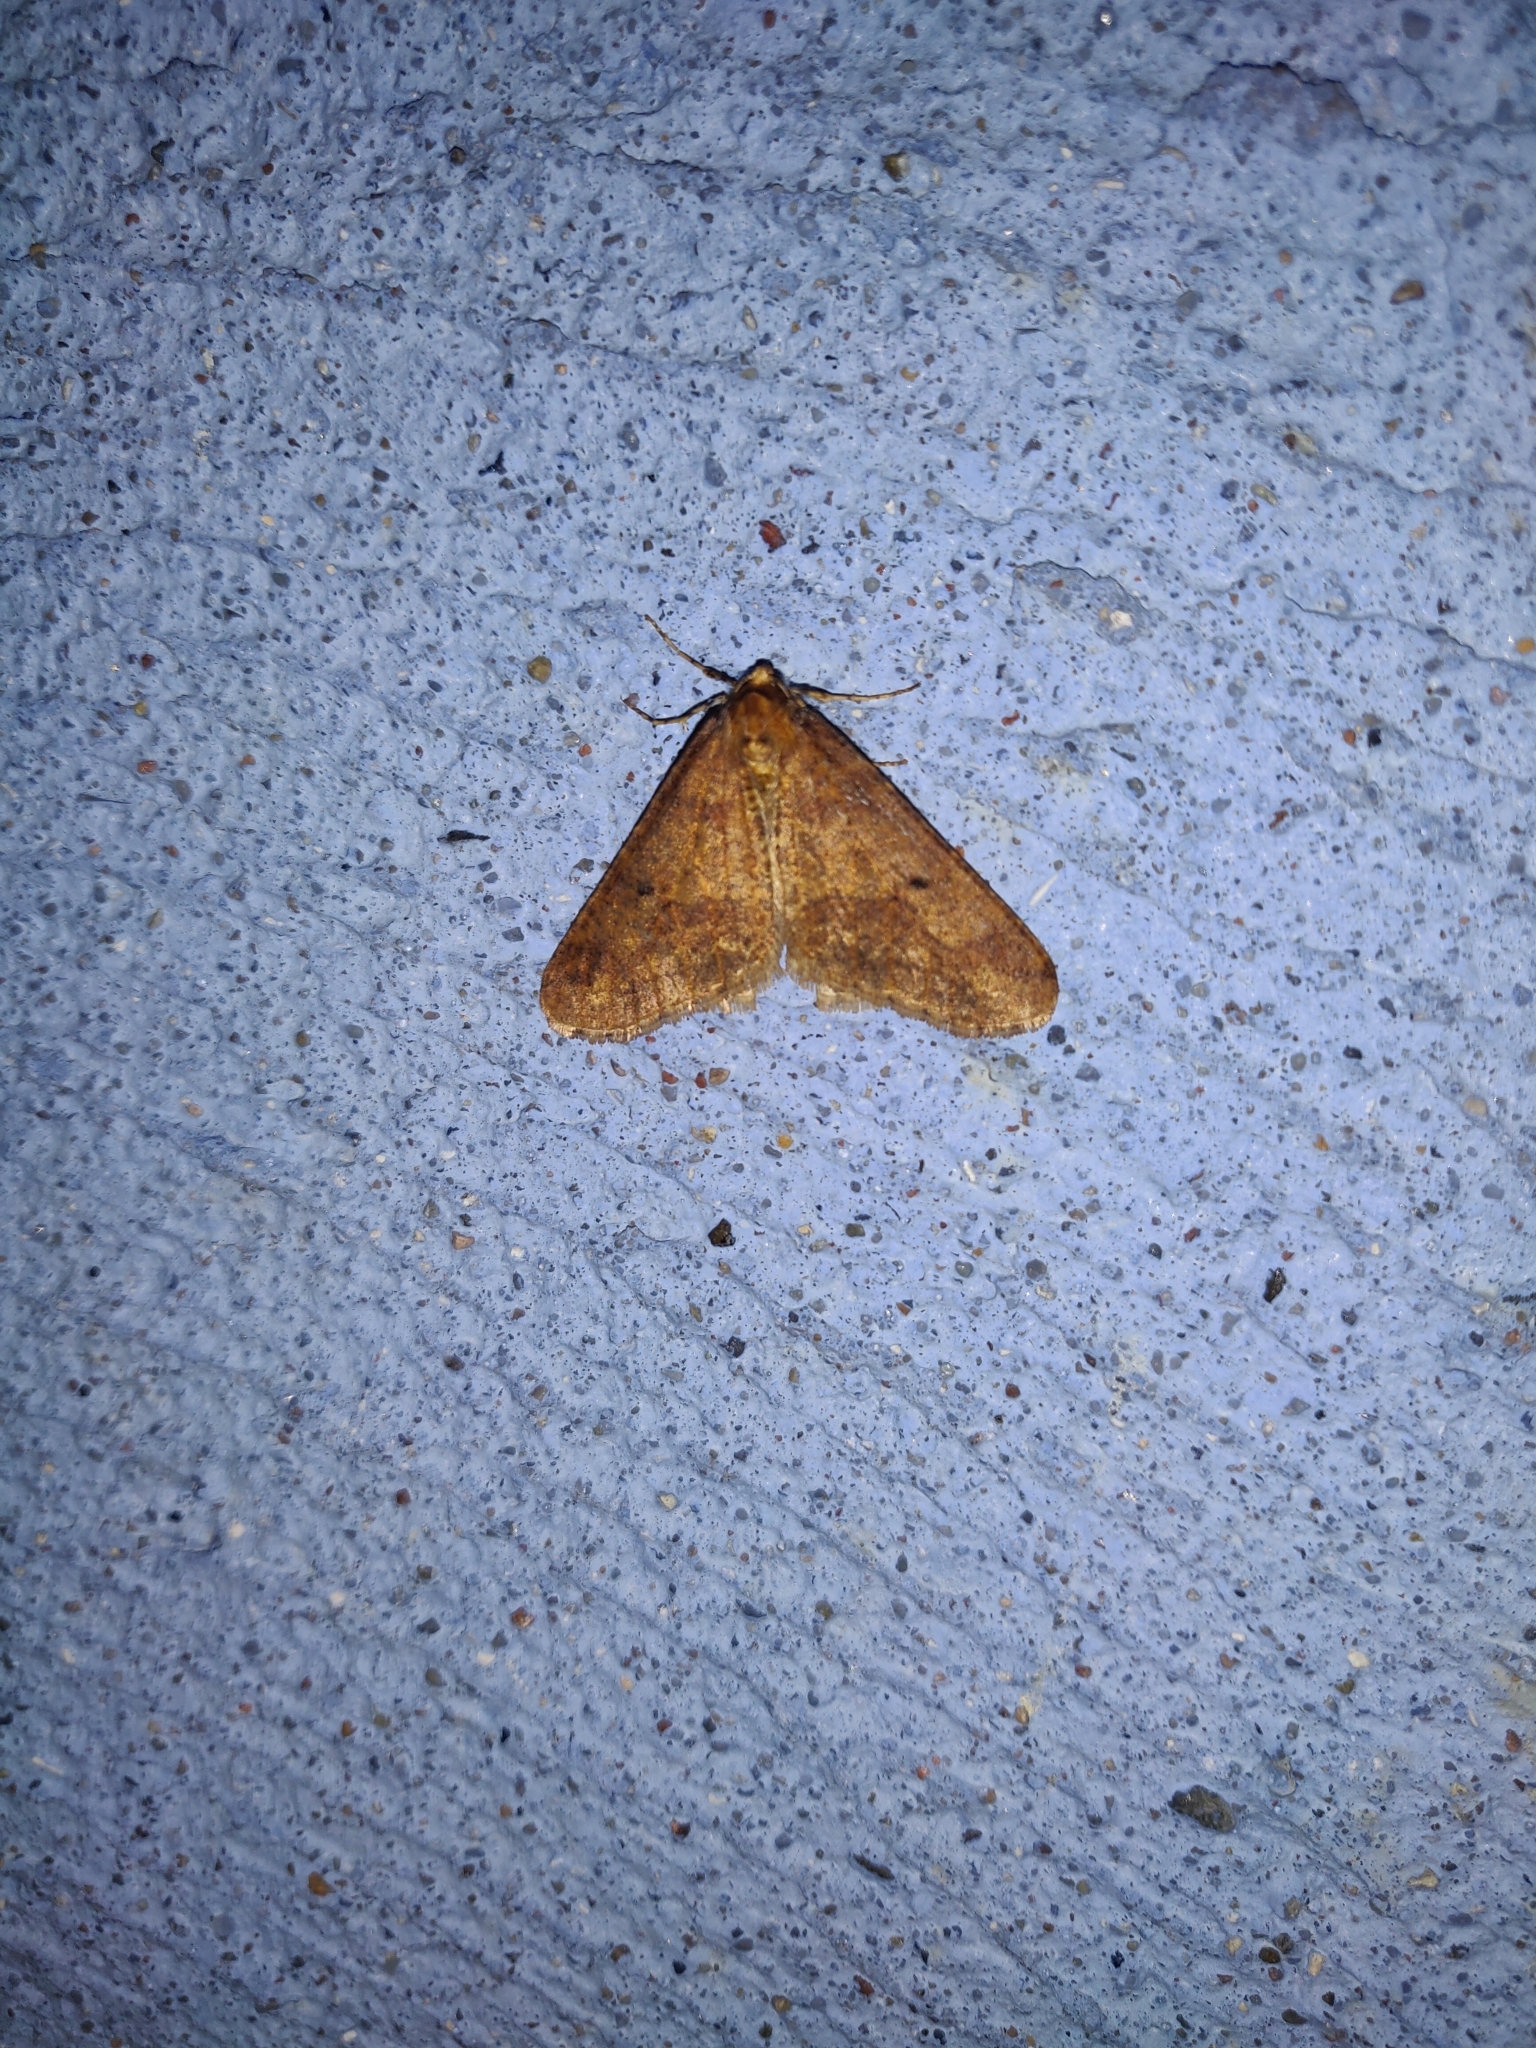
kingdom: Animalia
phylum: Arthropoda
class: Insecta
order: Lepidoptera
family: Geometridae
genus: Erannis
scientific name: Erannis defoliaria
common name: Mottled umber
